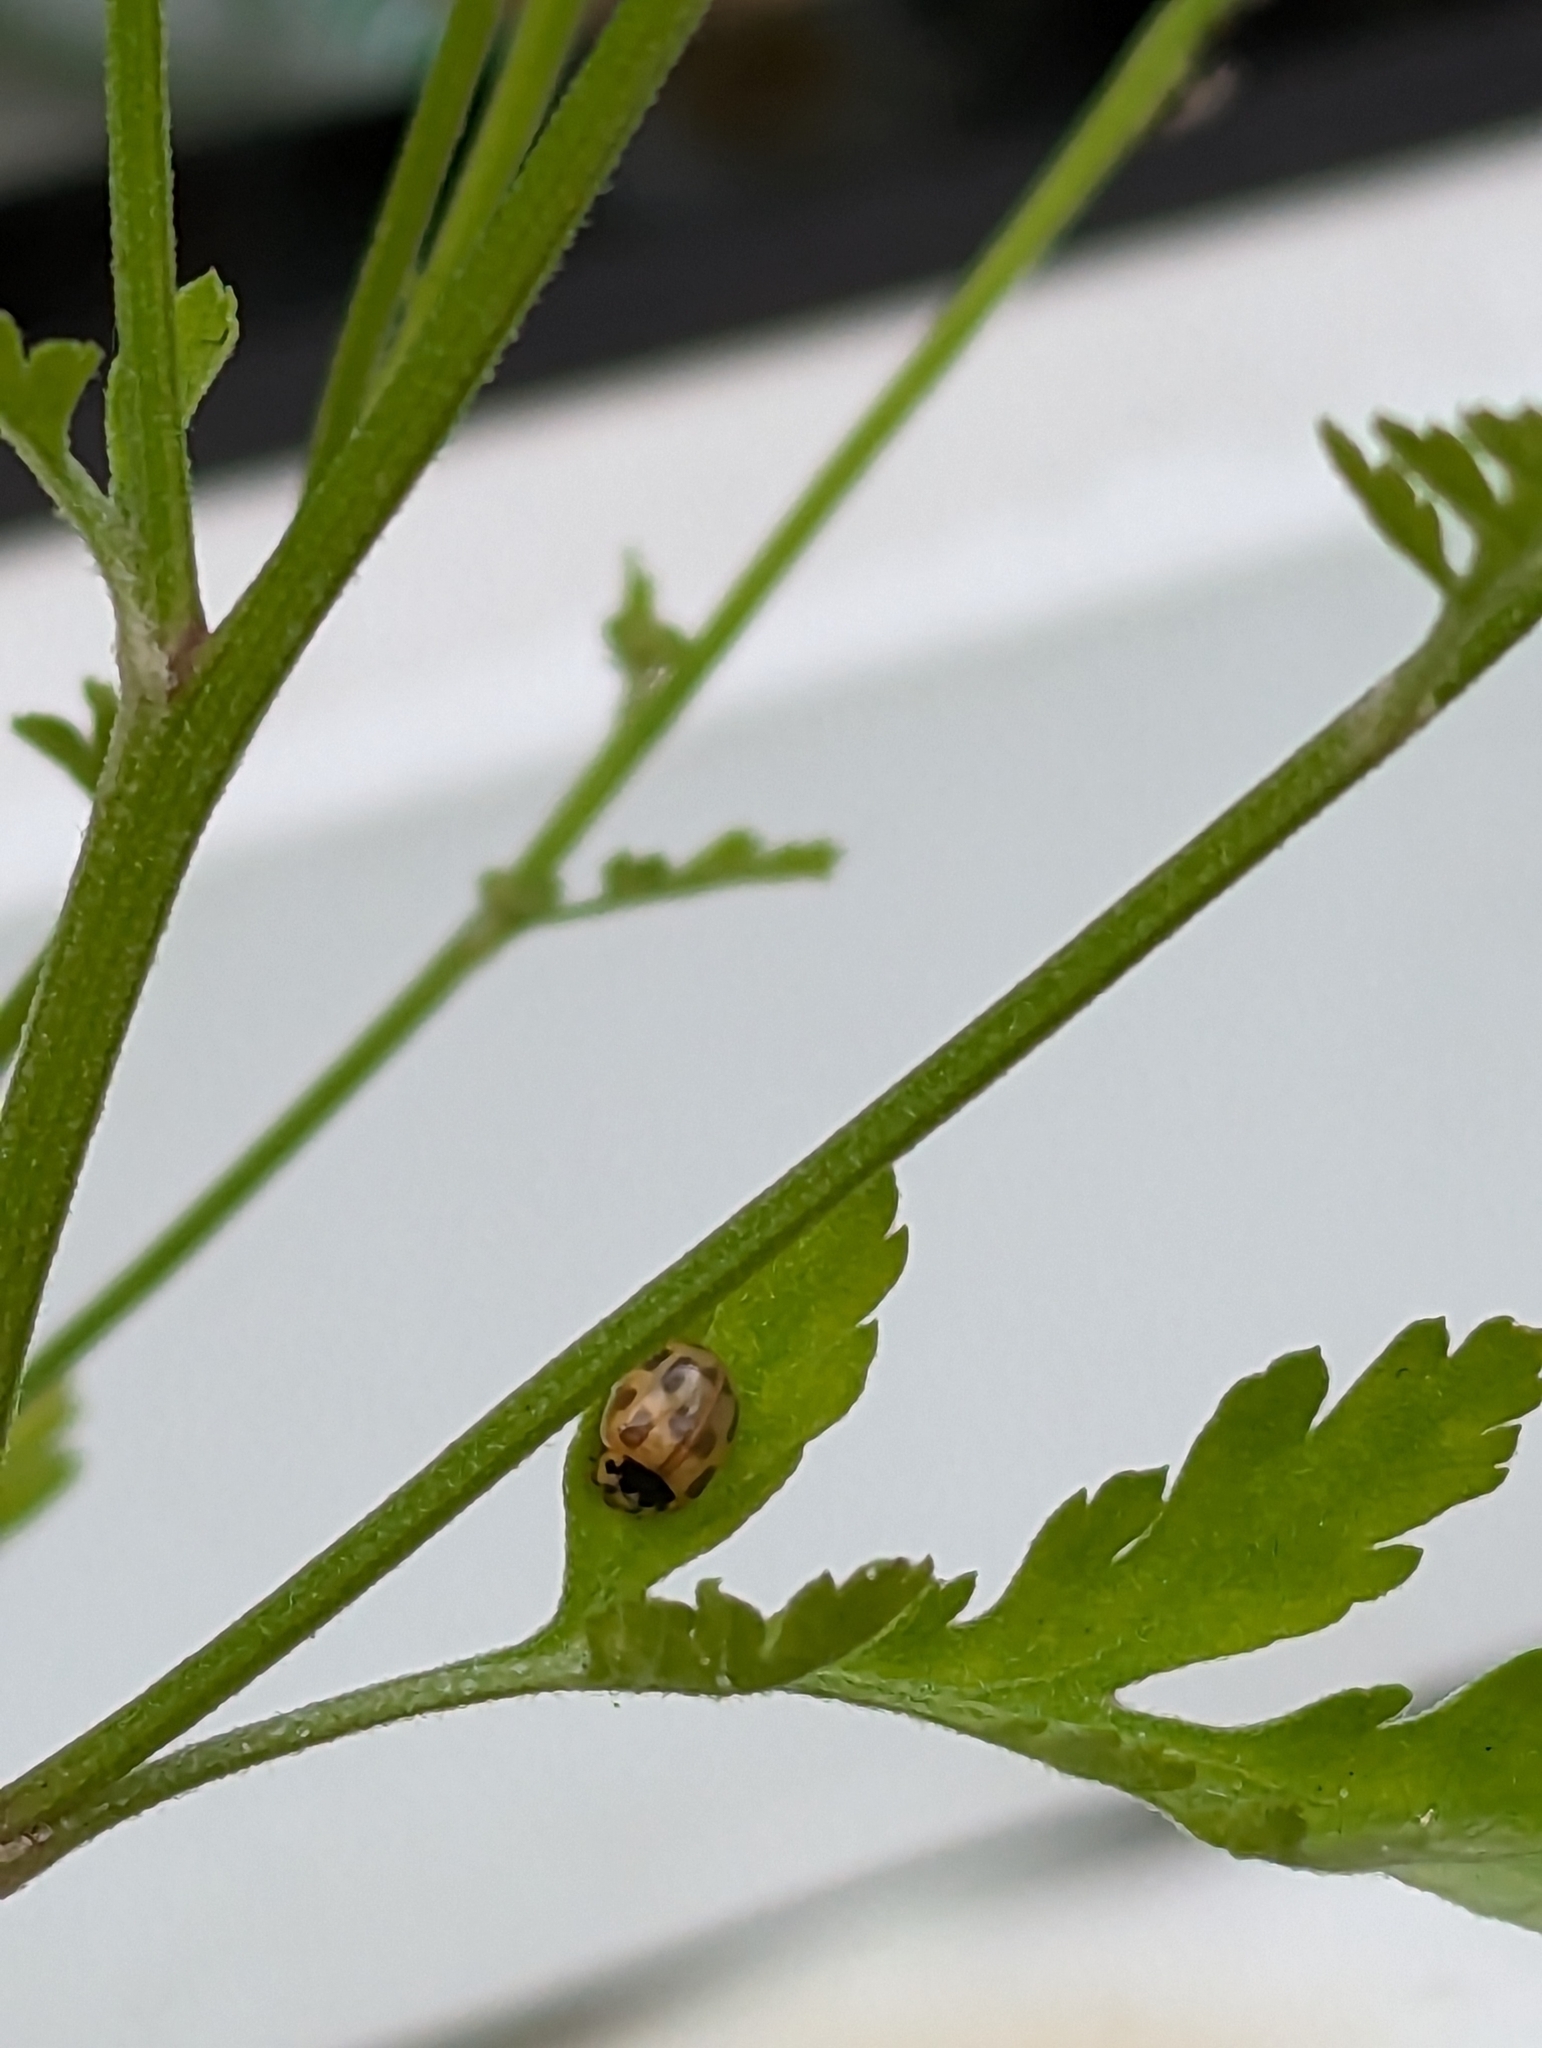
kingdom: Animalia
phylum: Arthropoda
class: Insecta
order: Coleoptera
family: Coccinellidae
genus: Propylaea
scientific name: Propylaea quatuordecimpunctata
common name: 14-spotted ladybird beetle
